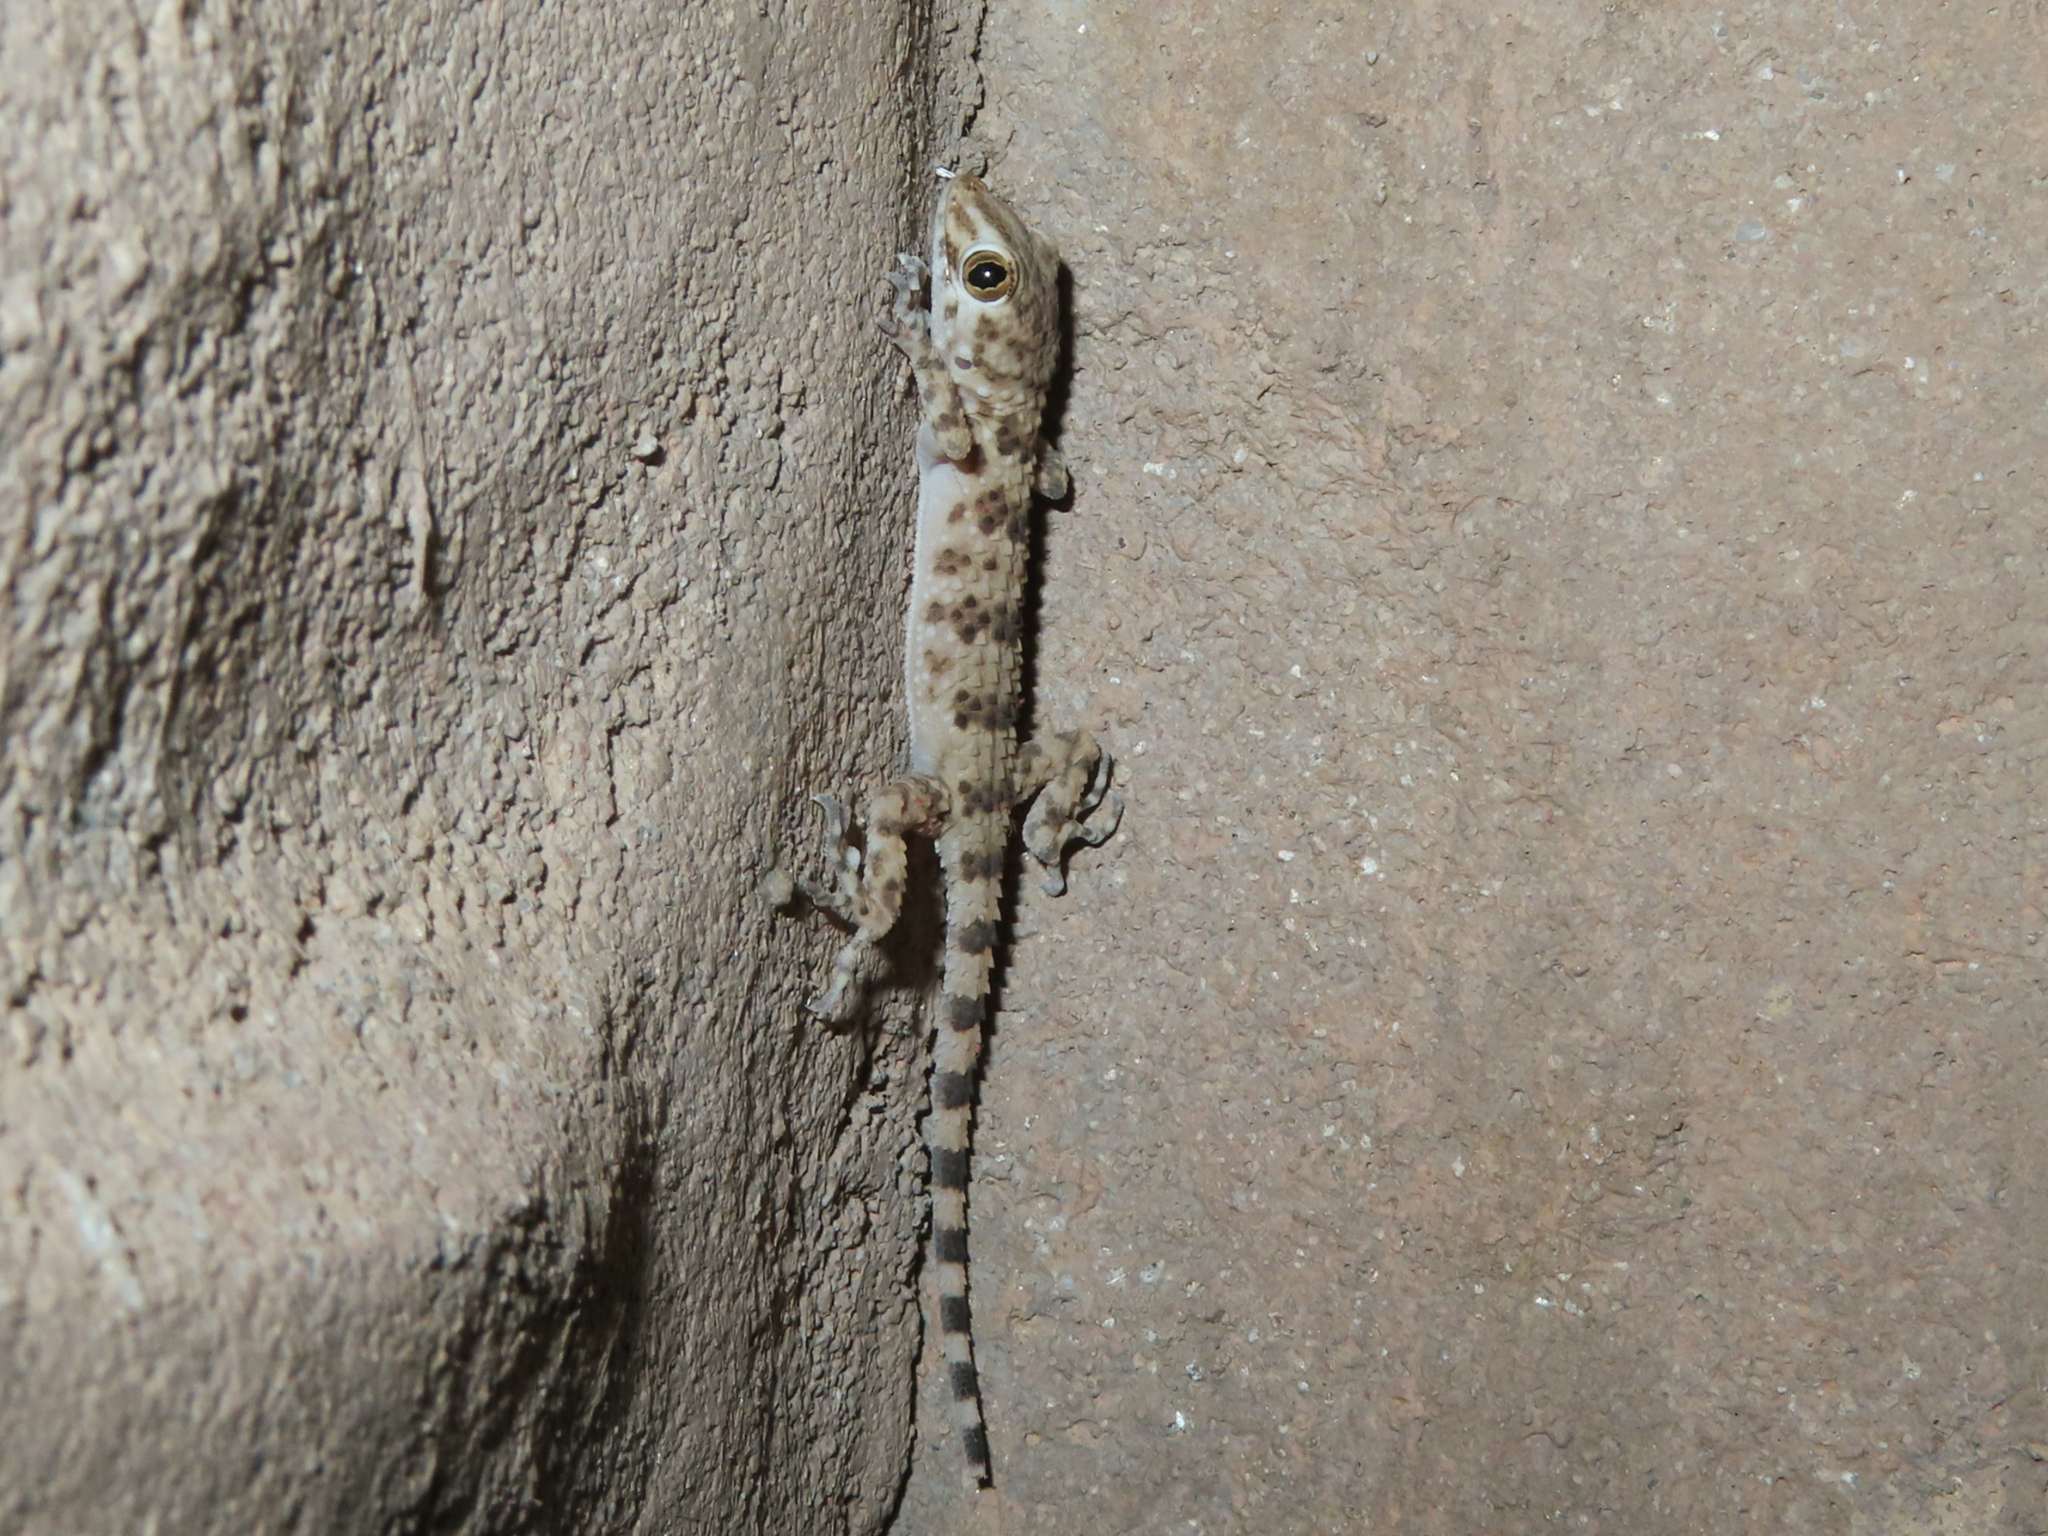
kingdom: Animalia
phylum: Chordata
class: Squamata
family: Gekkonidae
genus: Tenuidactylus
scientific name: Tenuidactylus caspius
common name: Caspian bent-toed gecko
